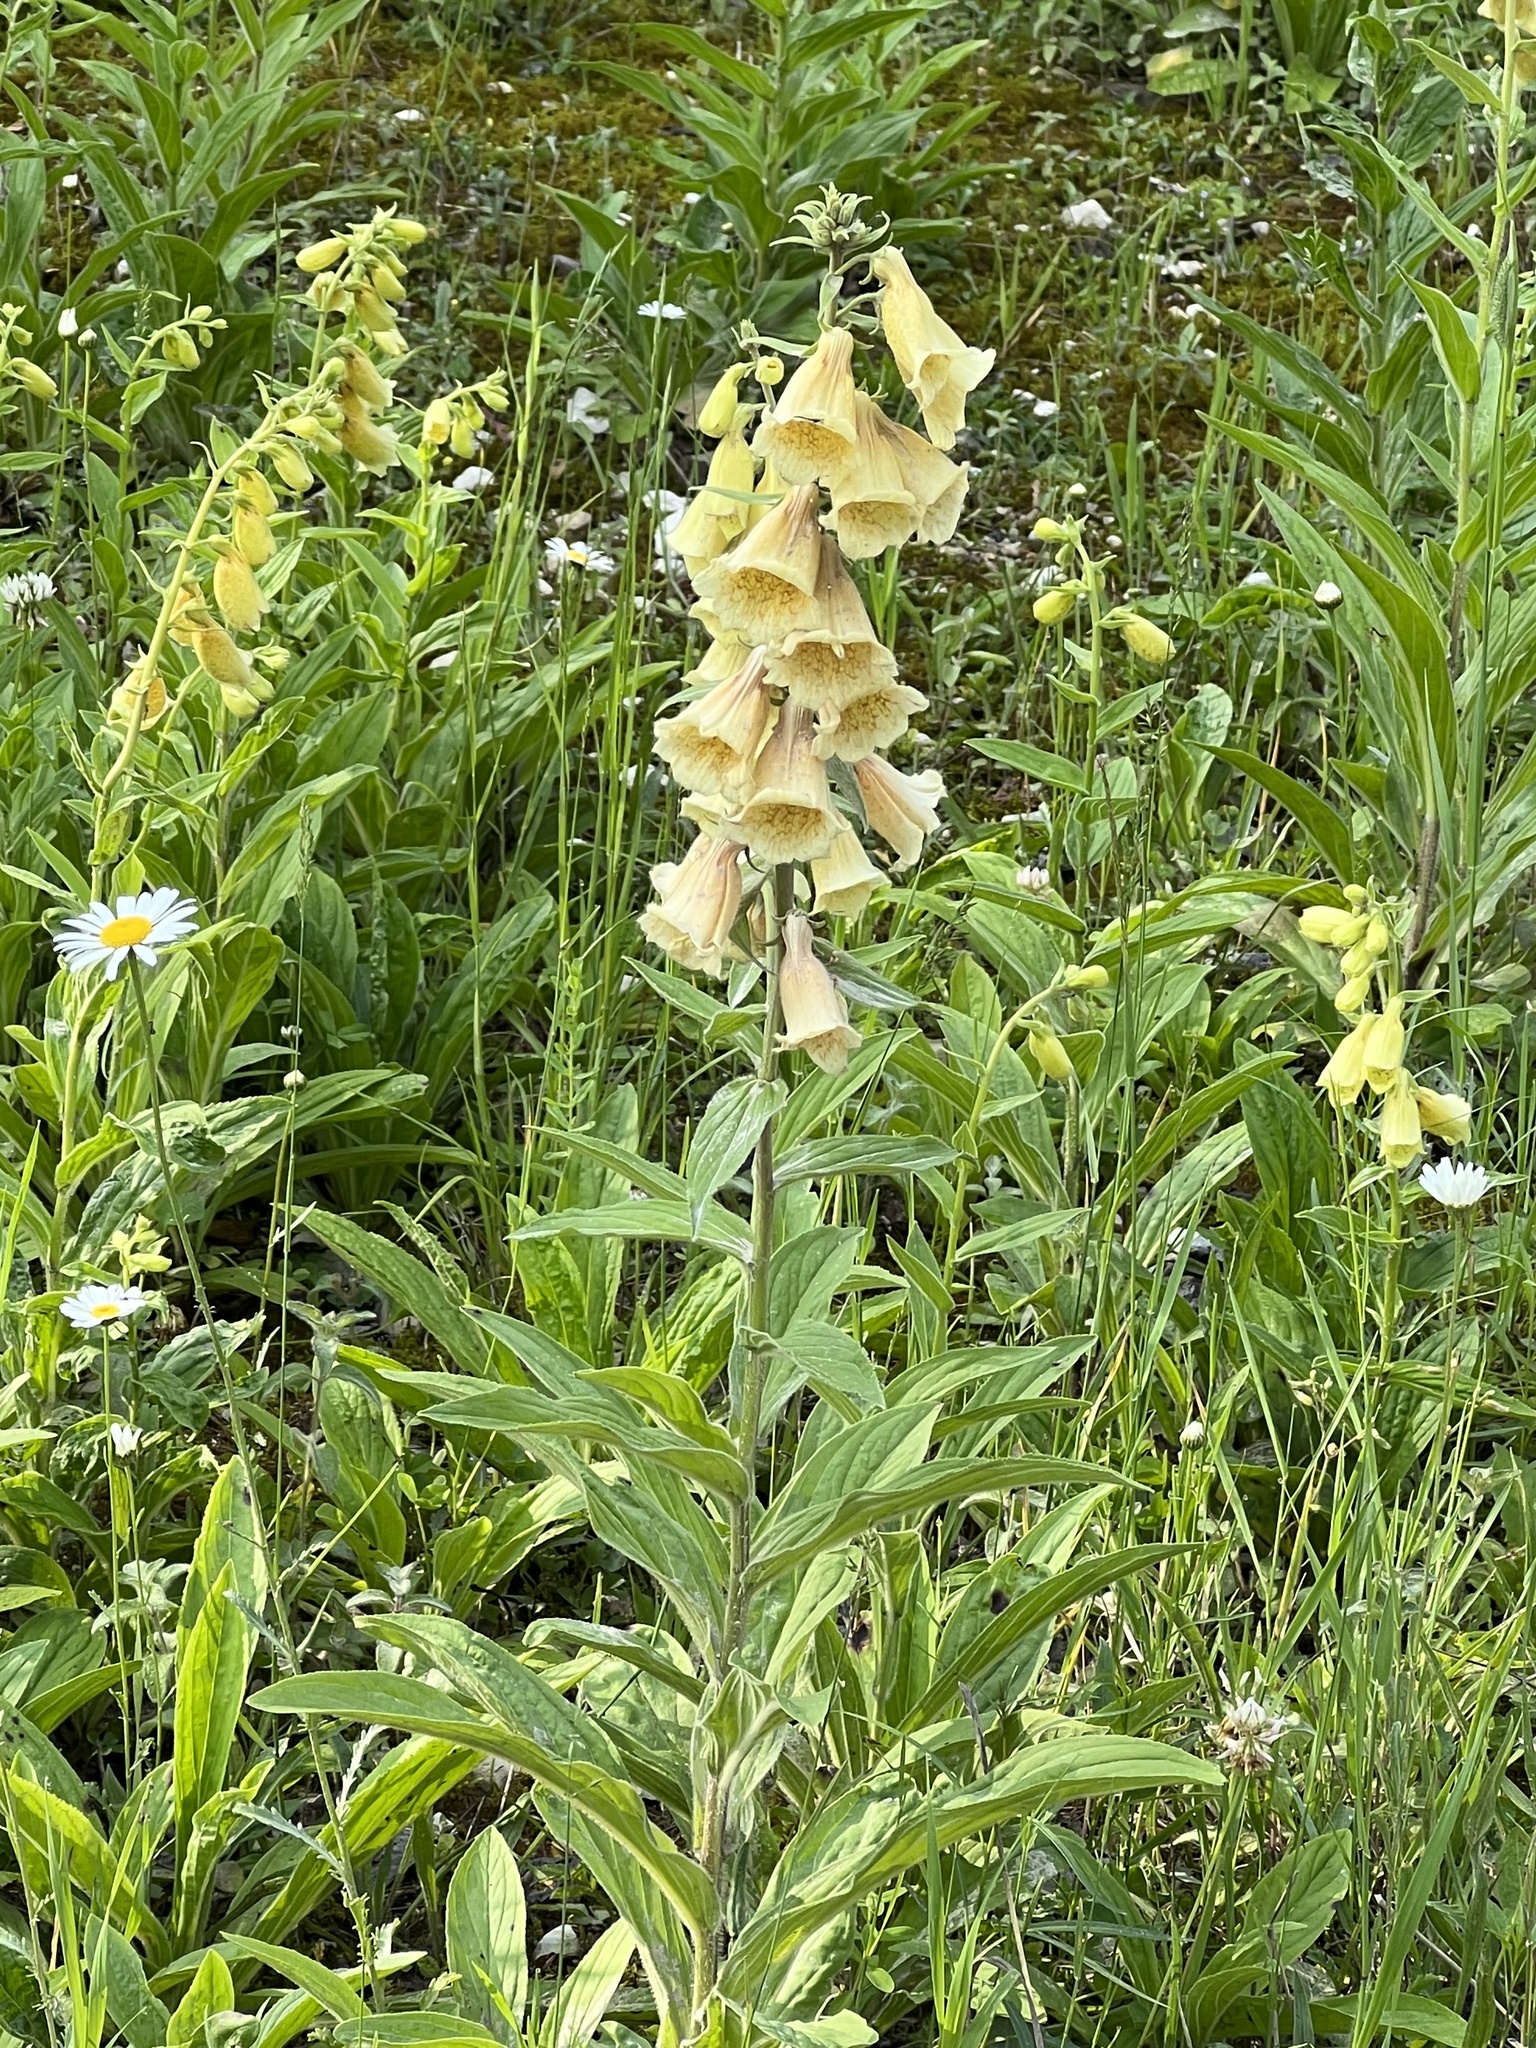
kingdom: Plantae
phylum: Tracheophyta
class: Magnoliopsida
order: Lamiales
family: Plantaginaceae
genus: Digitalis
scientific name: Digitalis grandiflora
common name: Yellow foxglove
